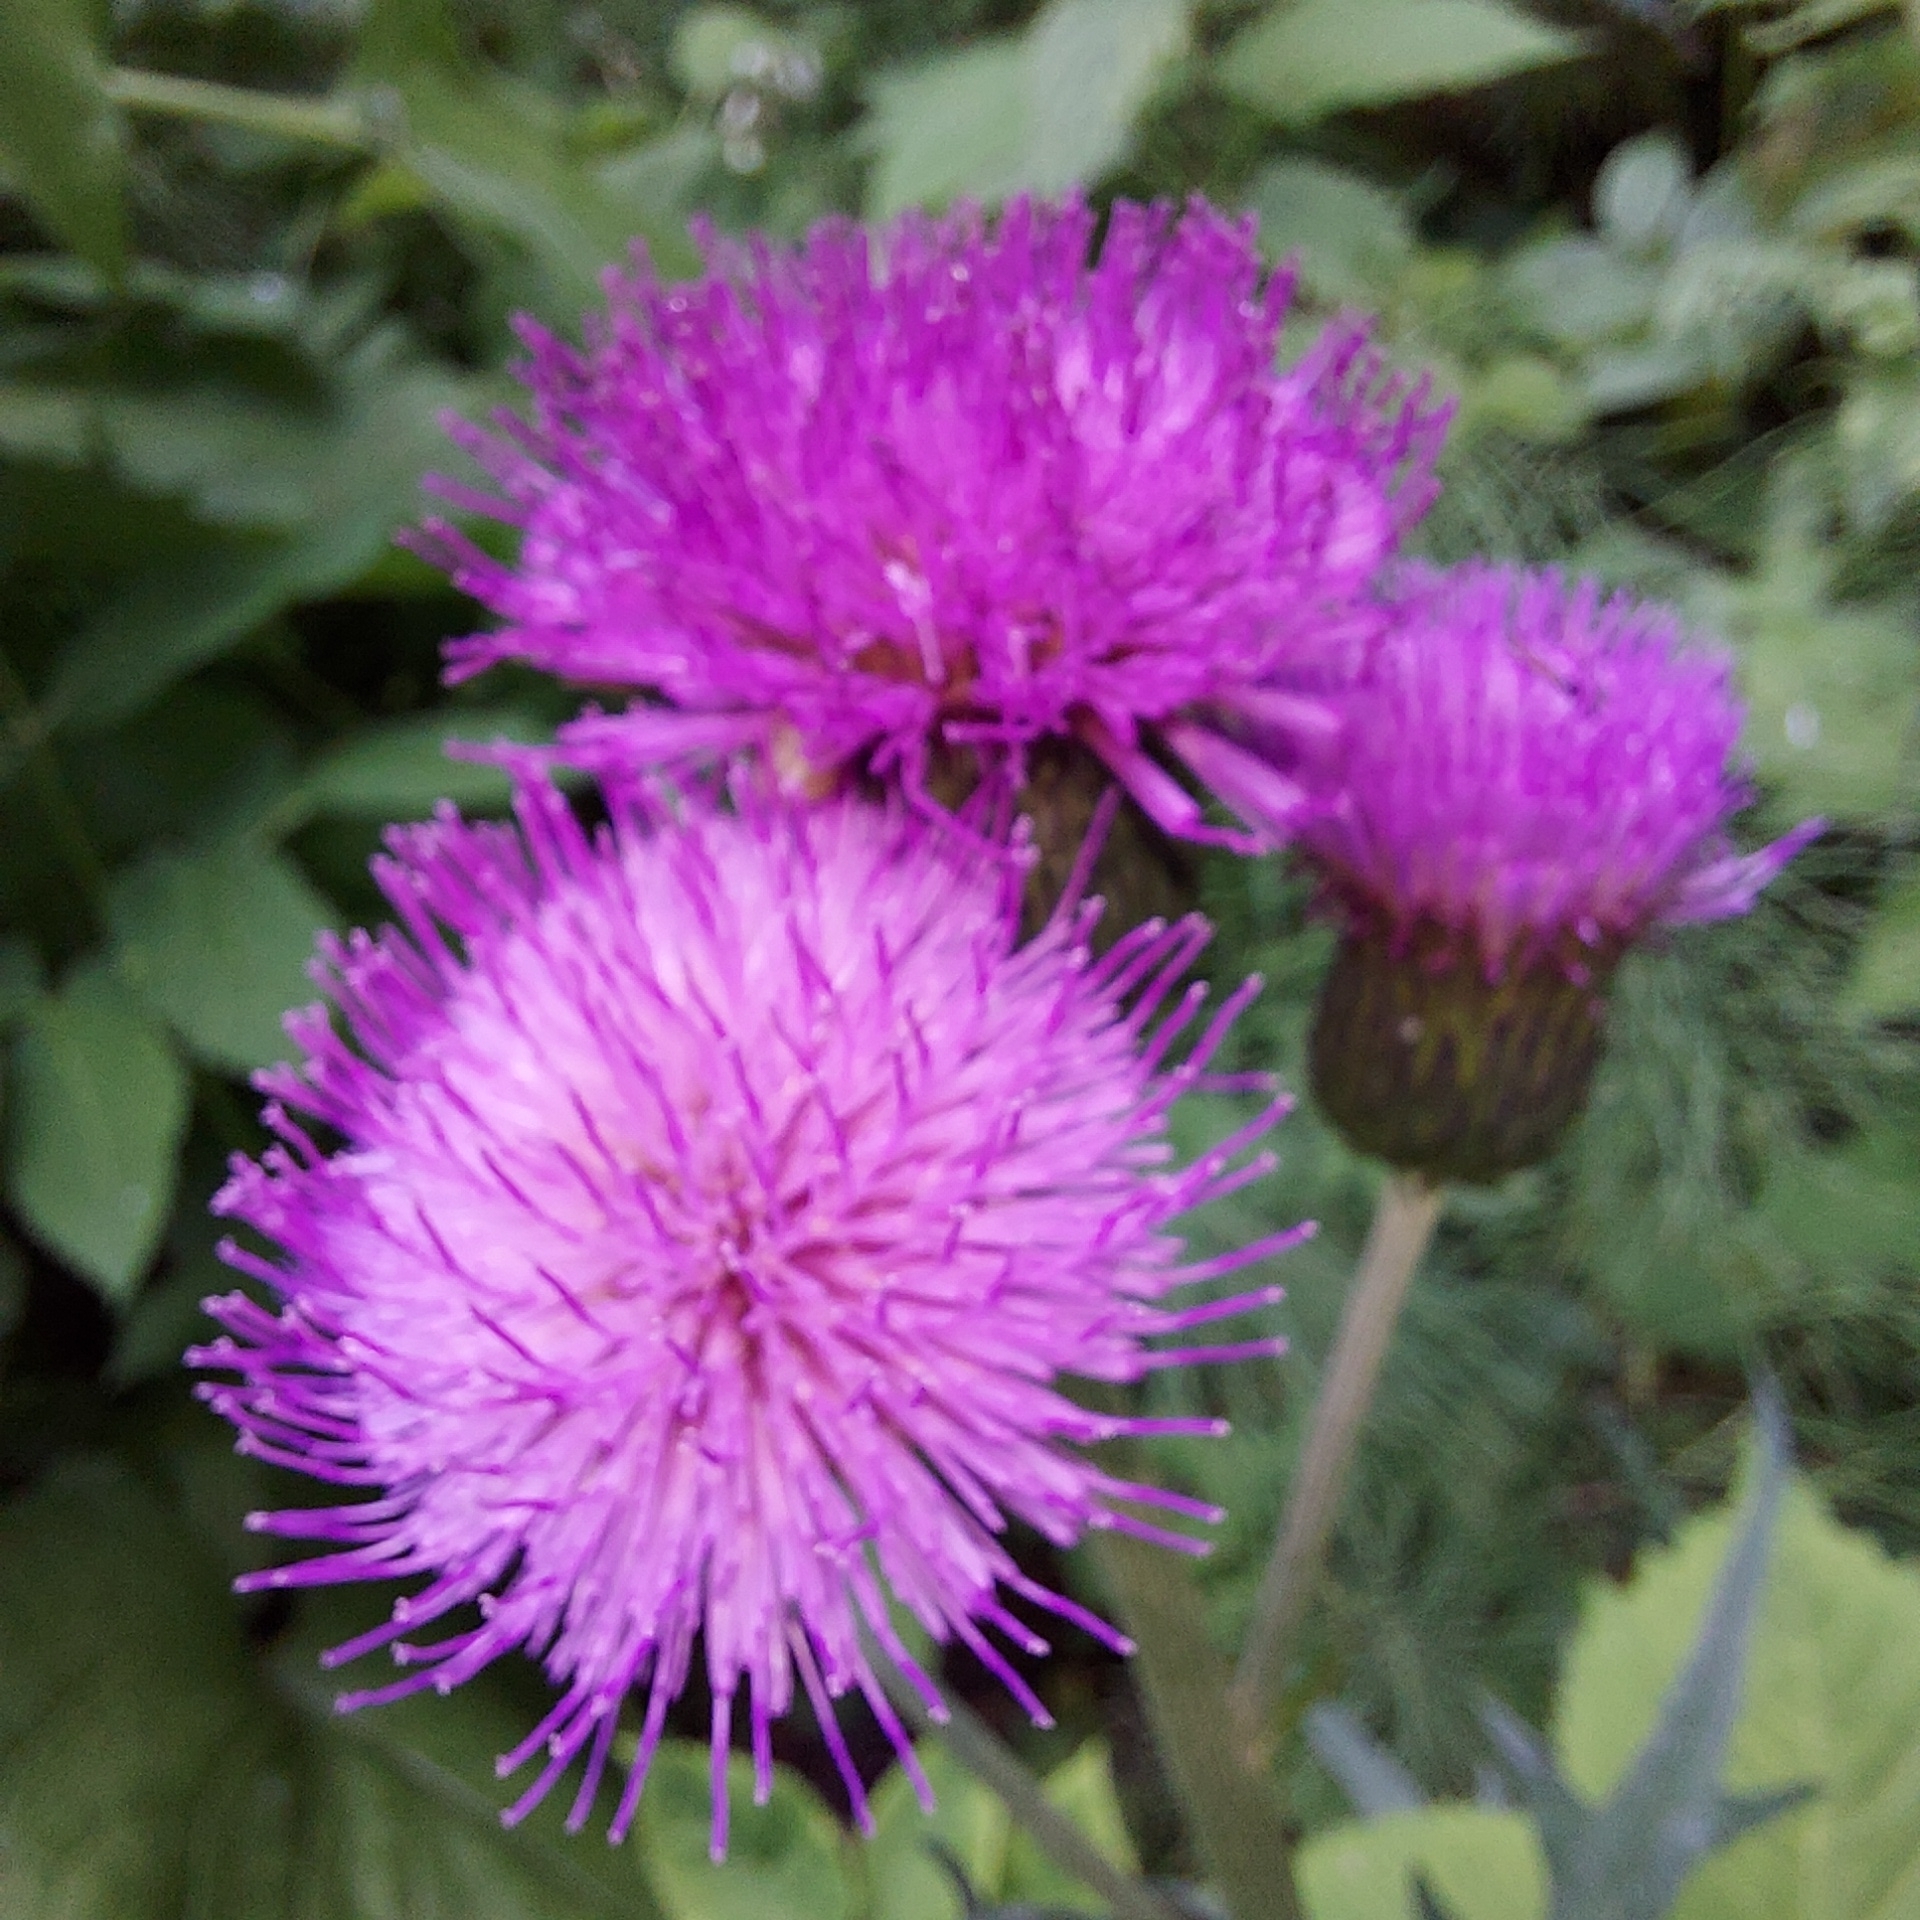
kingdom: Plantae
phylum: Tracheophyta
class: Magnoliopsida
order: Asterales
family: Asteraceae
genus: Cirsium
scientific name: Cirsium heterophyllum
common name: Melancholy thistle
